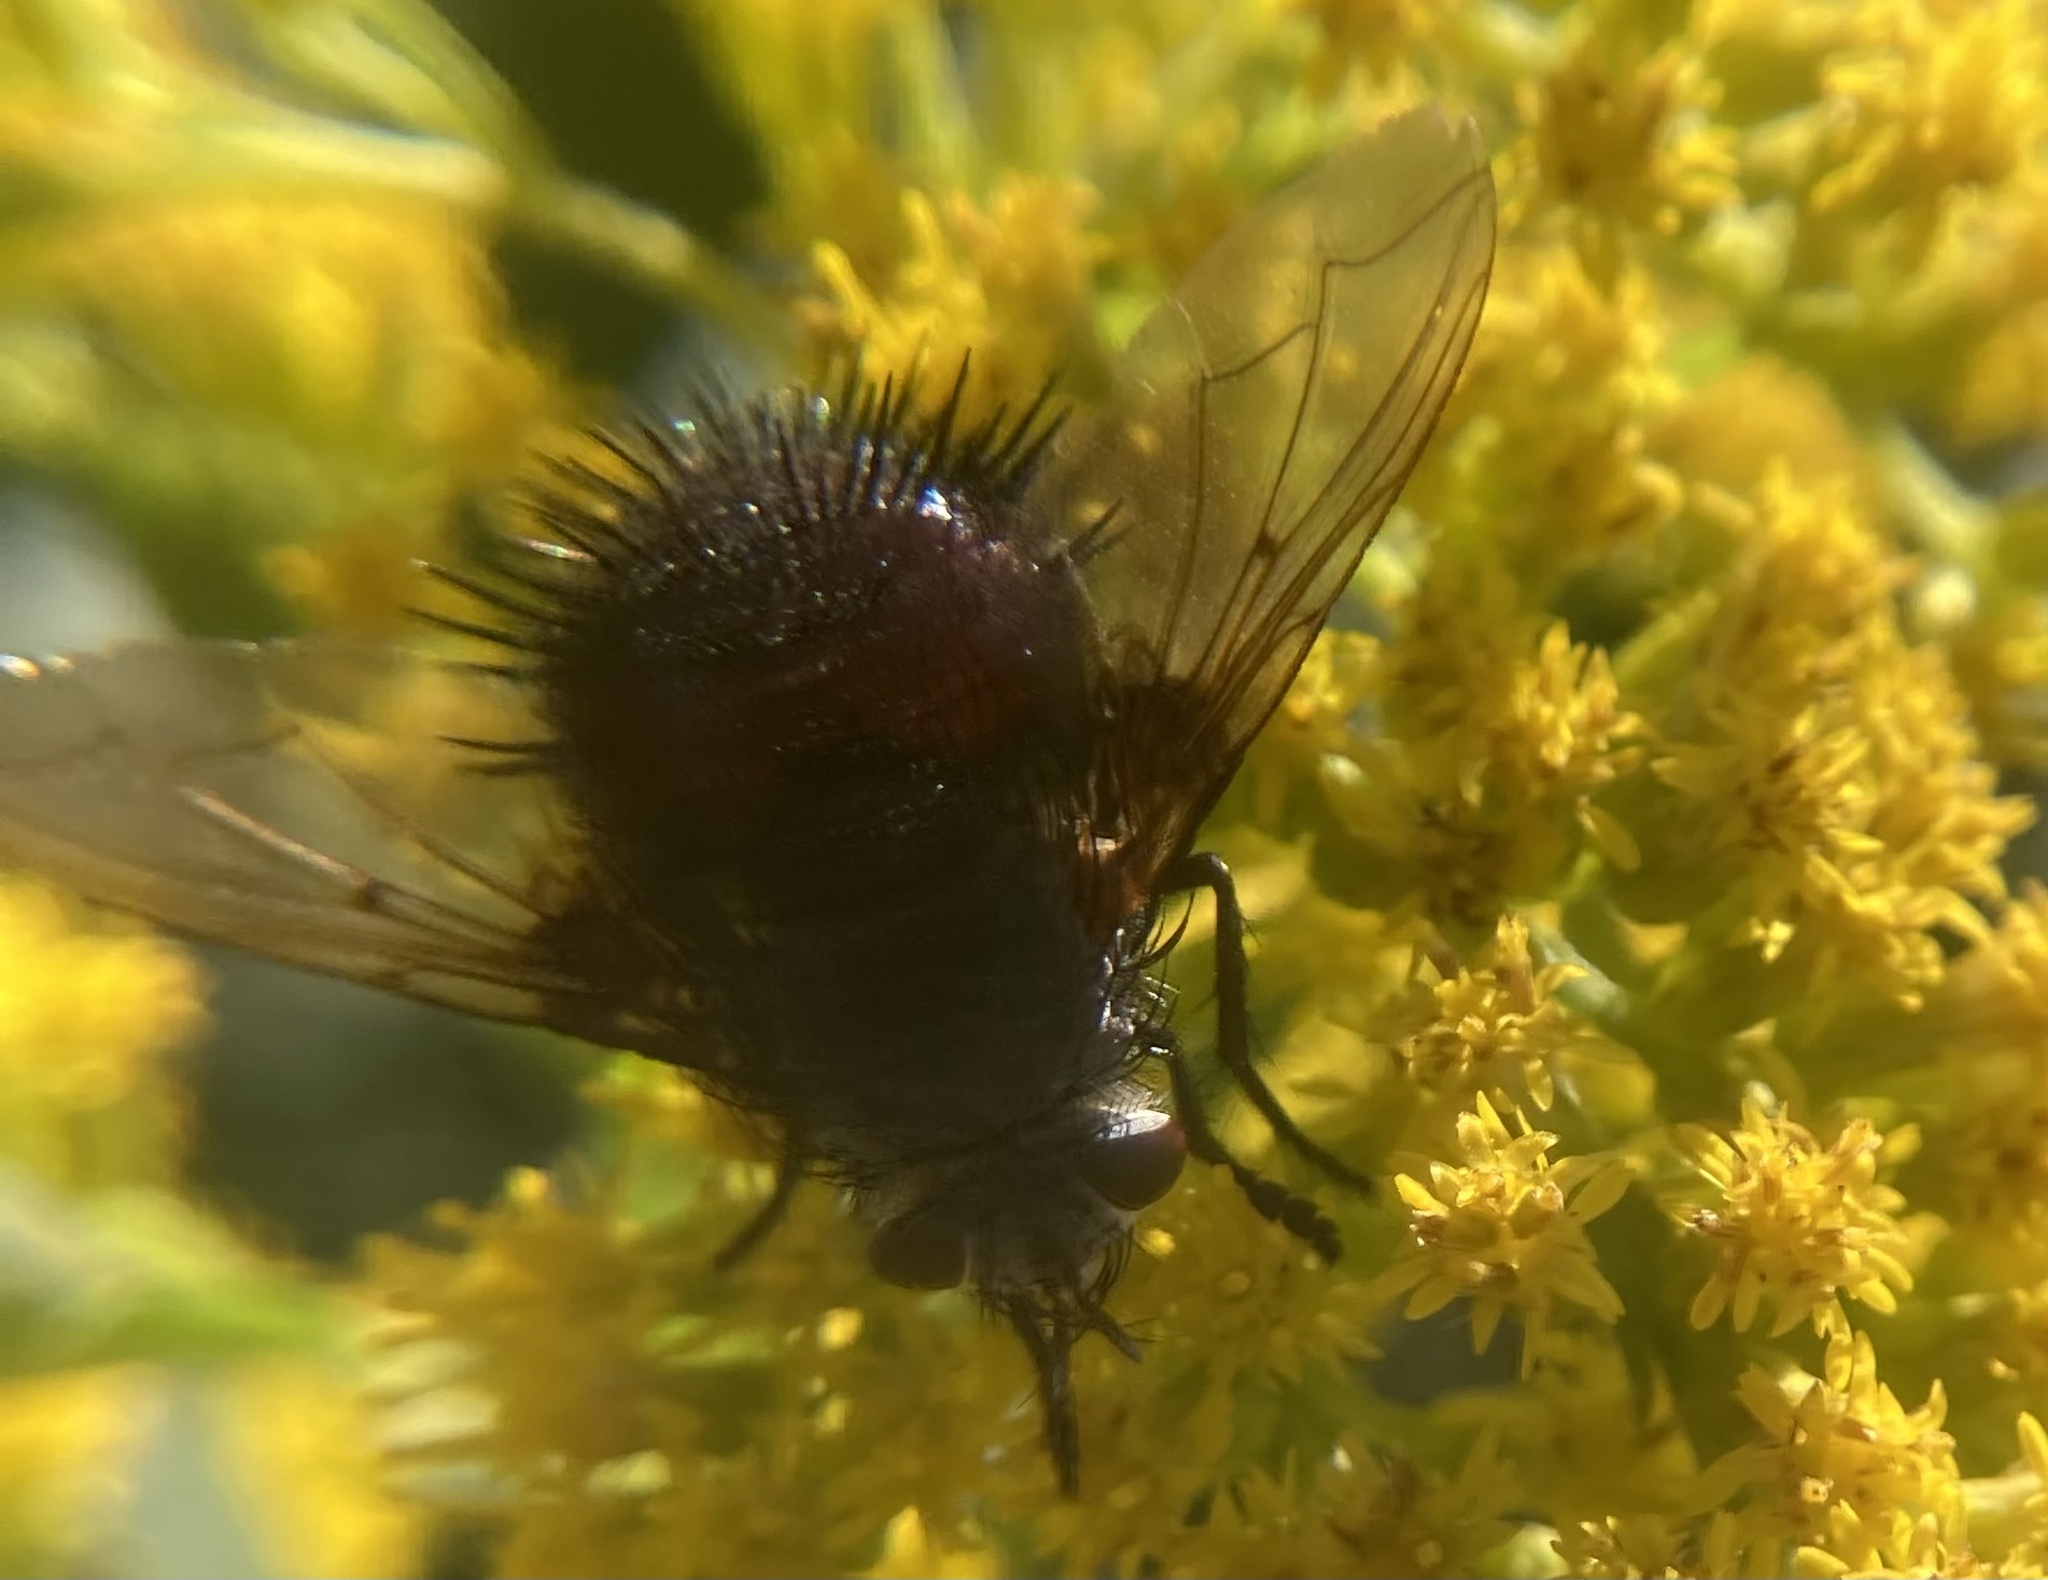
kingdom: Animalia
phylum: Arthropoda
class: Insecta
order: Diptera
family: Tachinidae
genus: Juriniopsis
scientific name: Juriniopsis adusta
